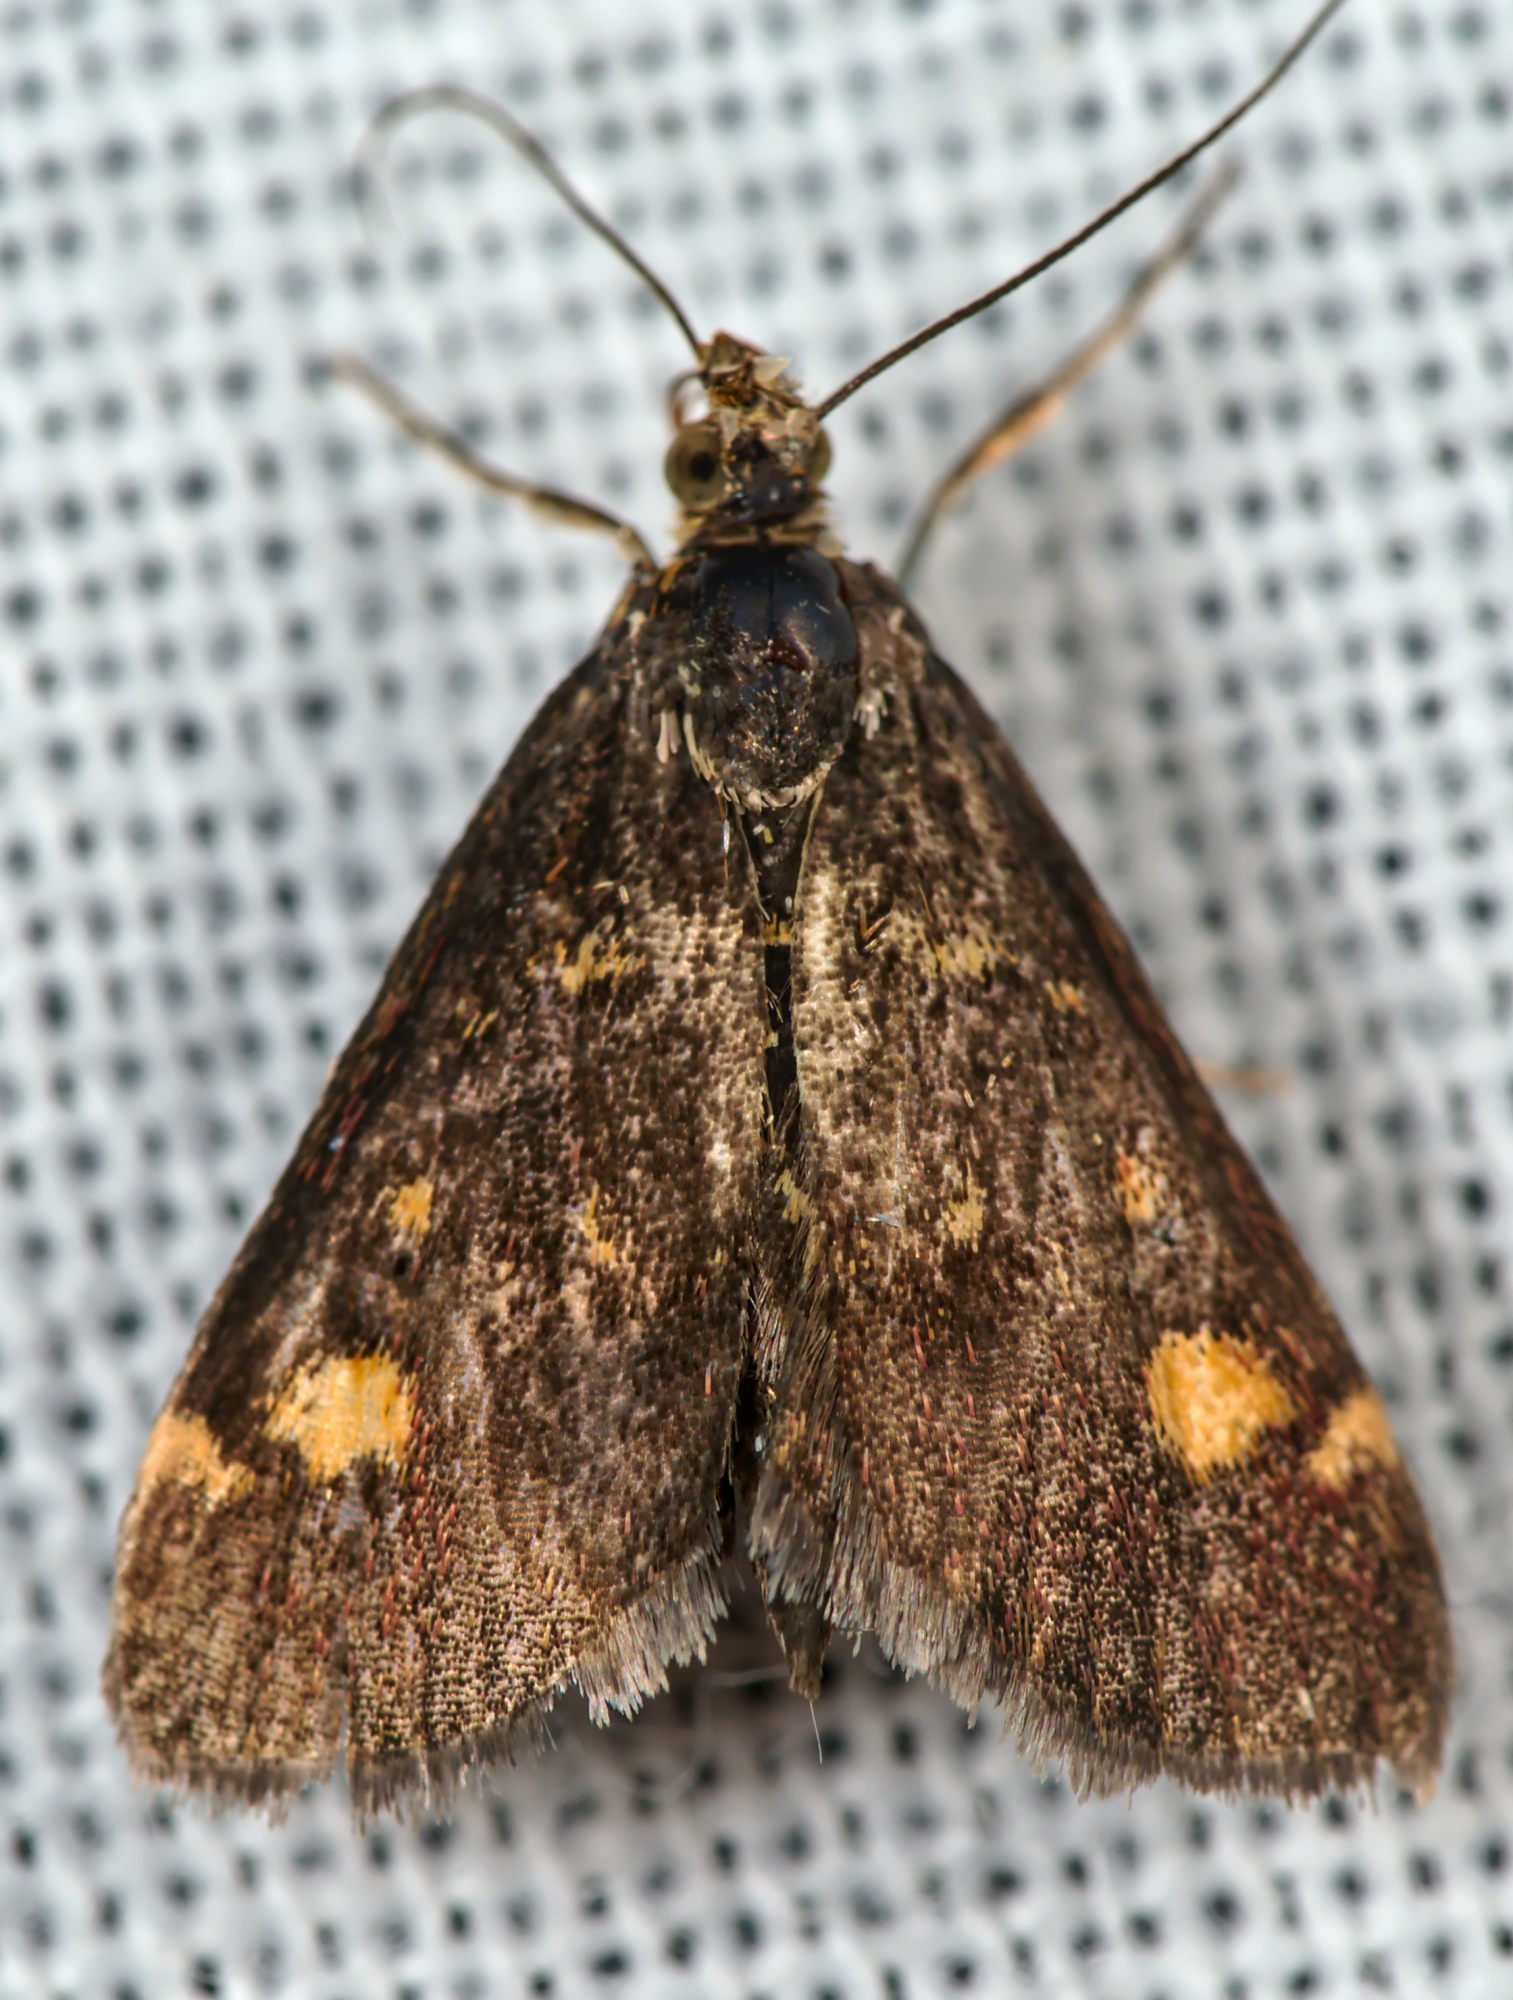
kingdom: Animalia
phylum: Arthropoda
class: Insecta
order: Lepidoptera
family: Crambidae
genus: Pyrausta
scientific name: Pyrausta aurata
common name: Small purple & gold
